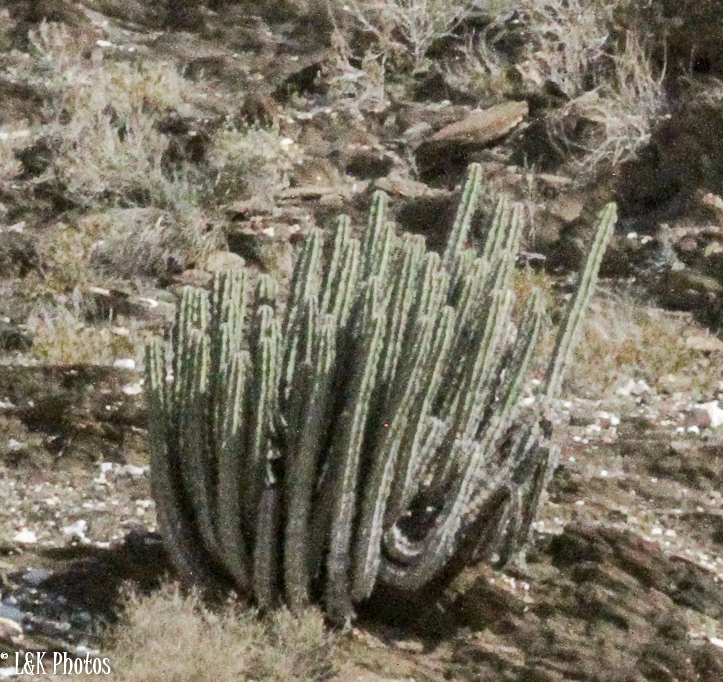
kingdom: Plantae
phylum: Tracheophyta
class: Magnoliopsida
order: Malpighiales
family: Euphorbiaceae
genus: Euphorbia
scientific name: Euphorbia virosa
